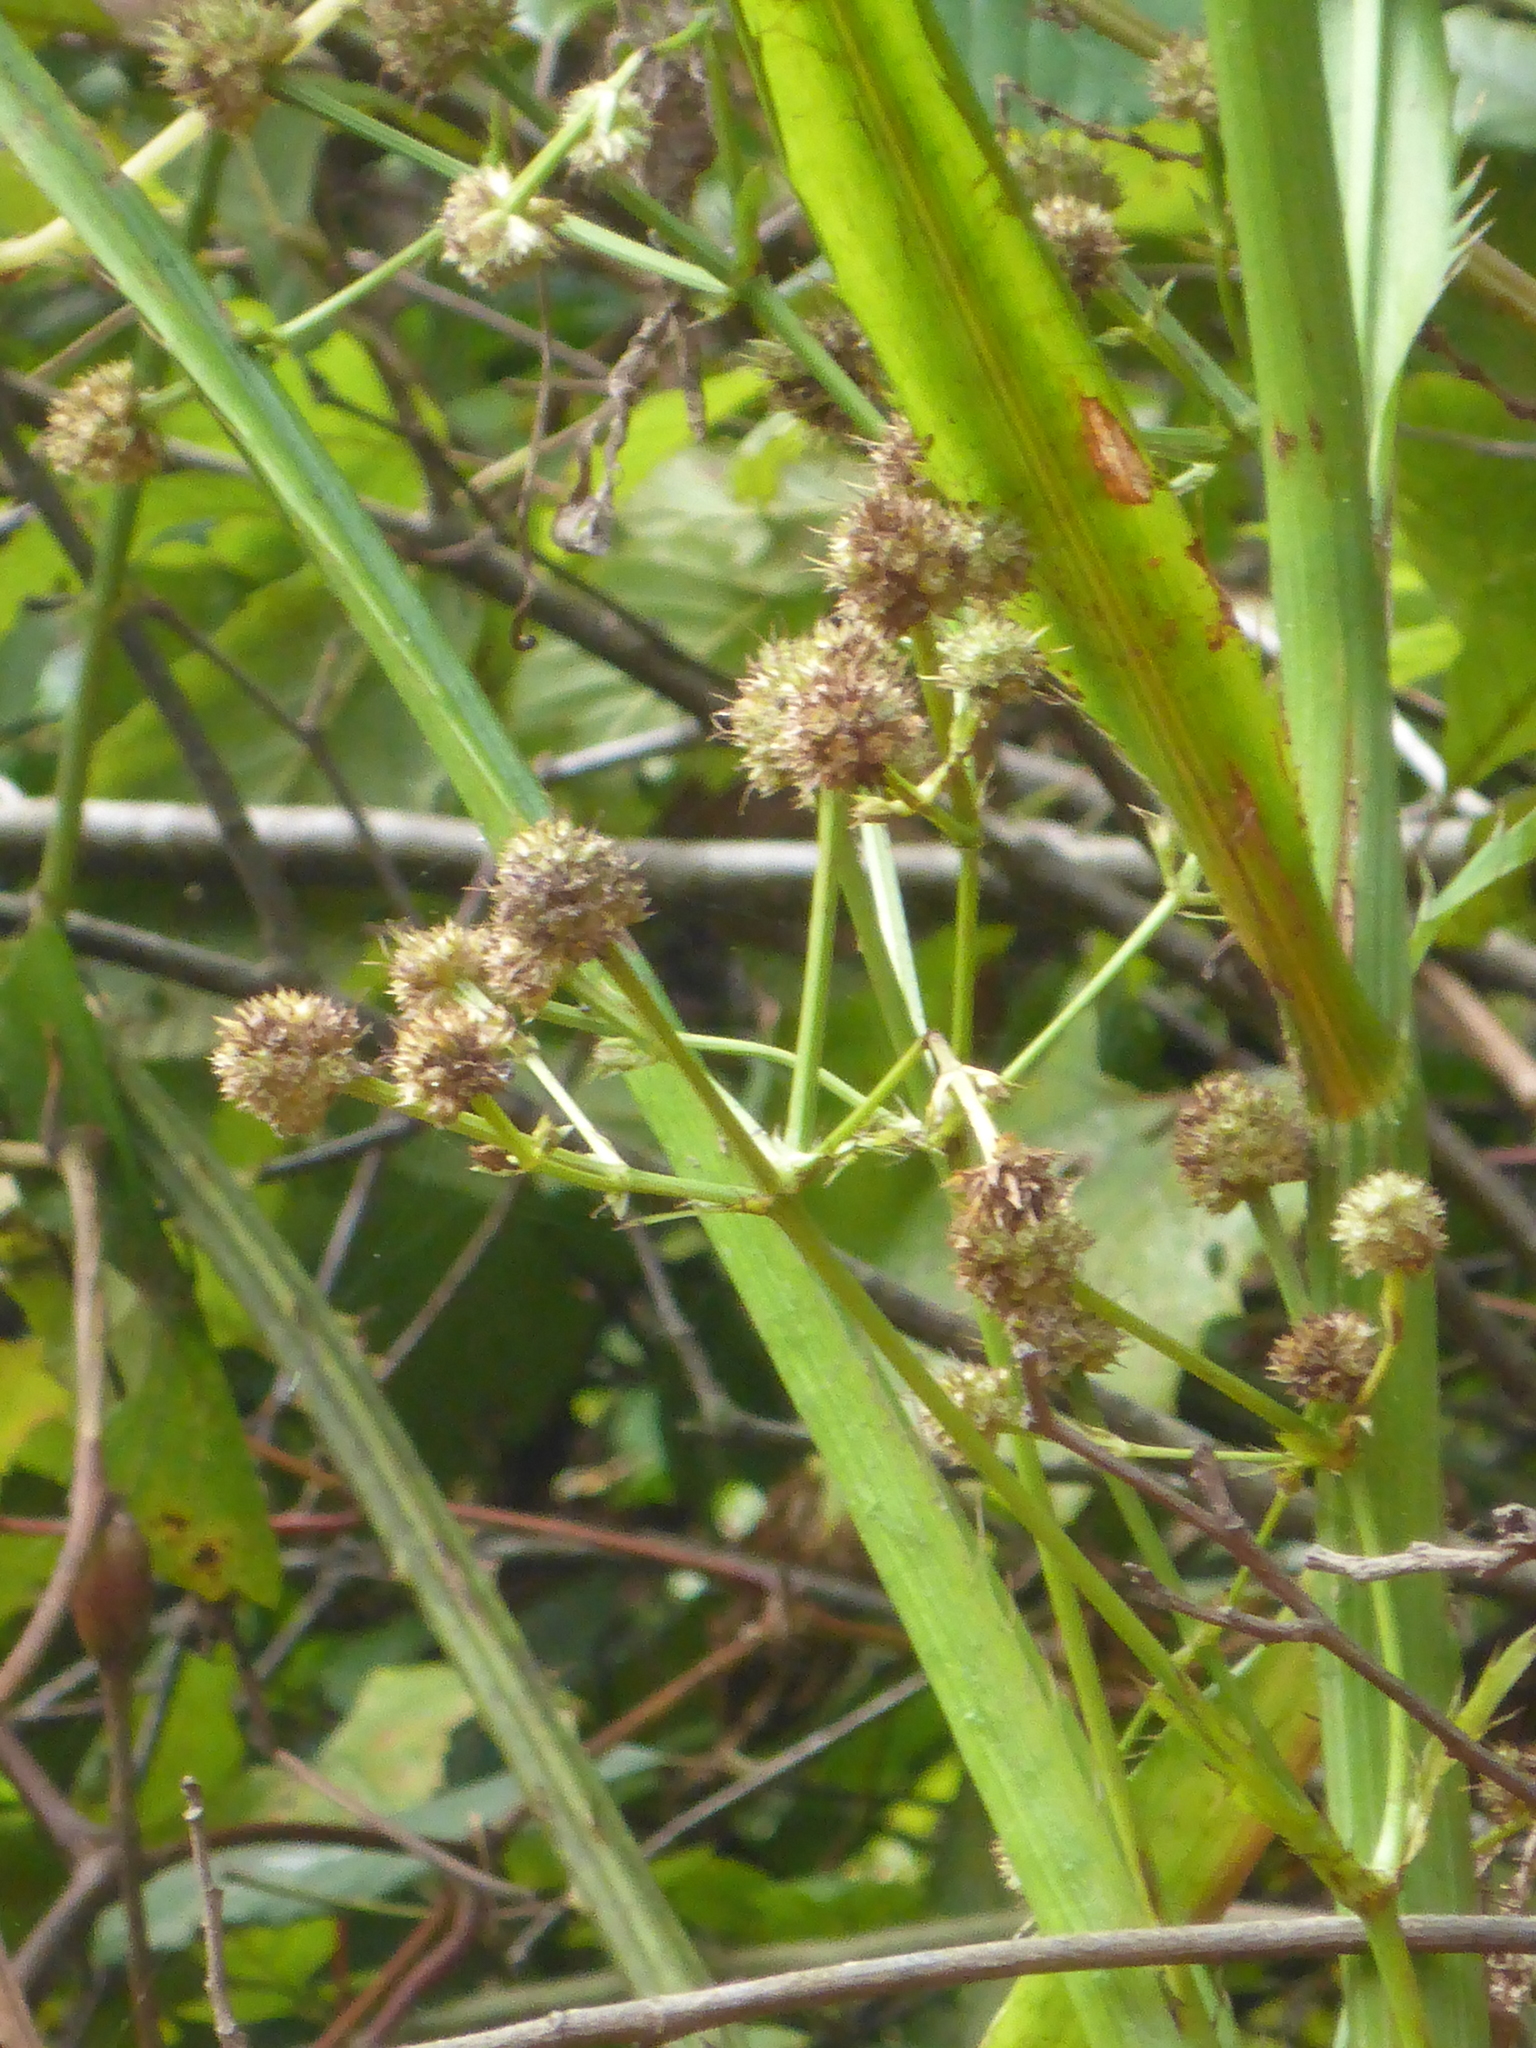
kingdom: Plantae
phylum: Tracheophyta
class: Magnoliopsida
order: Apiales
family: Apiaceae
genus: Eryngium
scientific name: Eryngium yuccifolium
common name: Button eryngo
